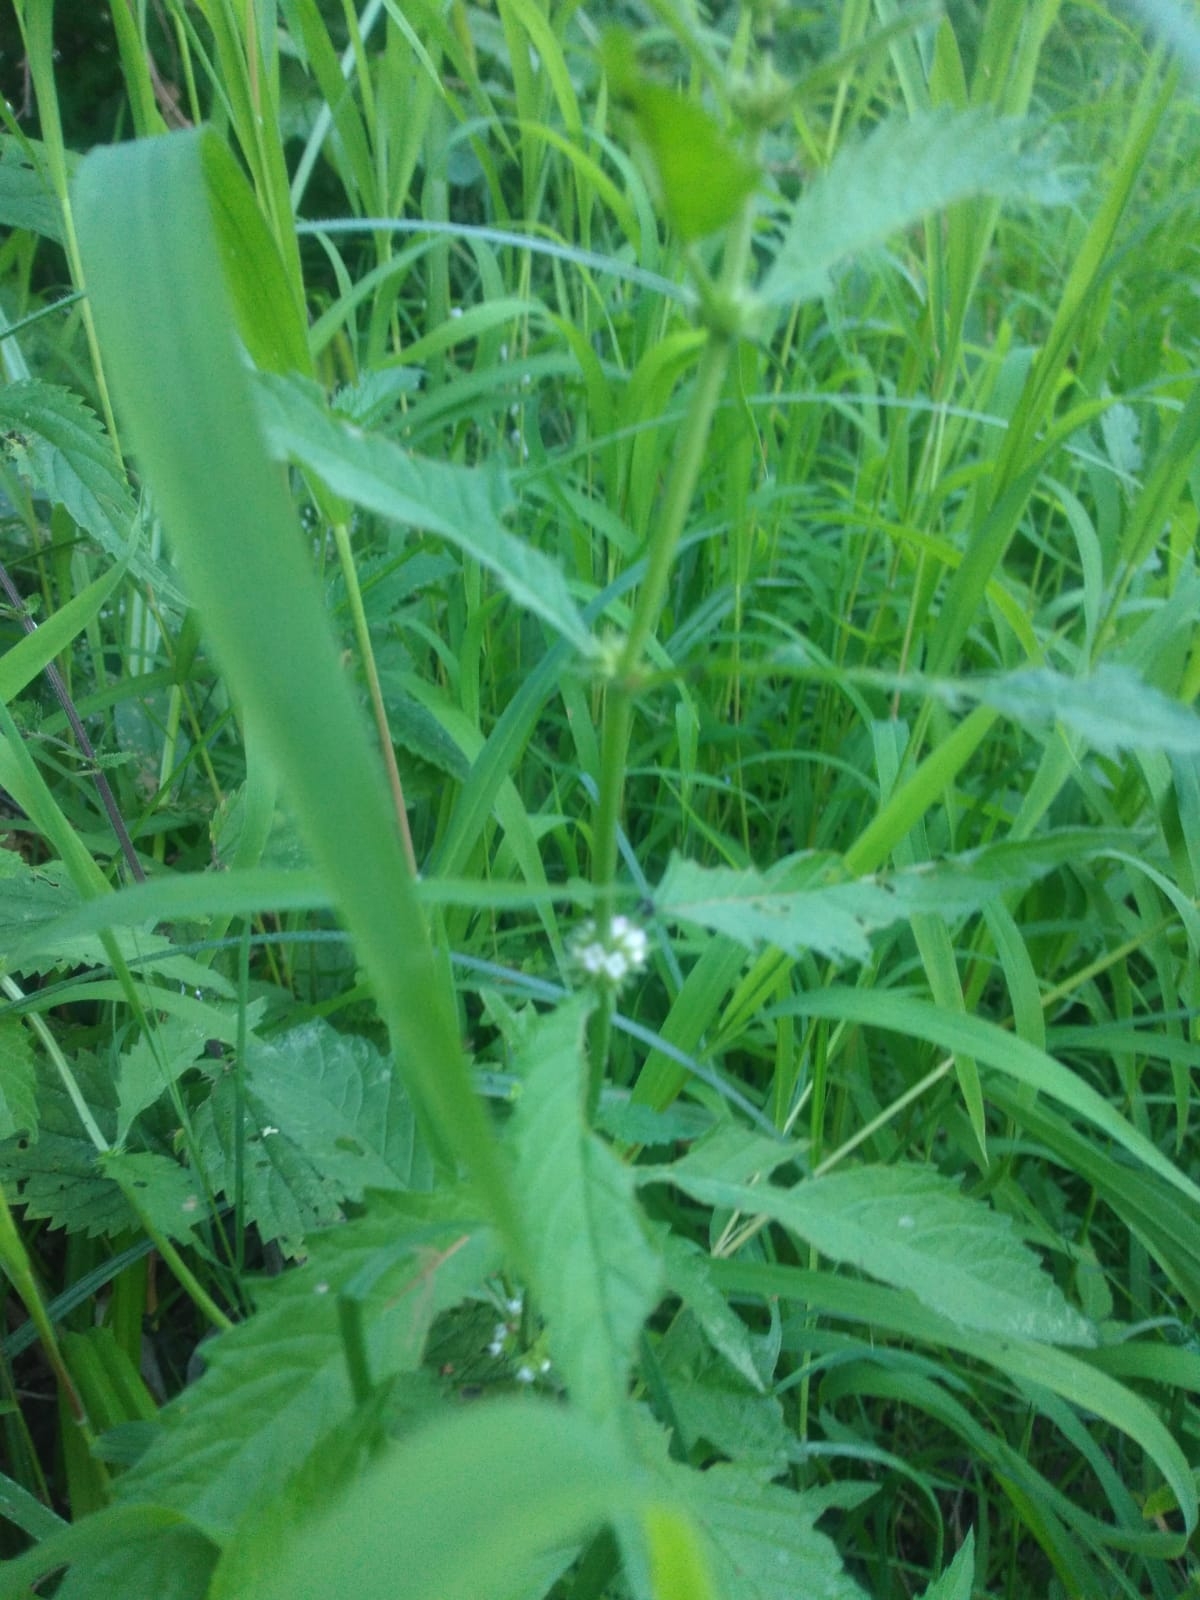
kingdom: Plantae
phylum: Tracheophyta
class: Magnoliopsida
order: Lamiales
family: Lamiaceae
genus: Lycopus
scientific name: Lycopus europaeus
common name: European bugleweed
